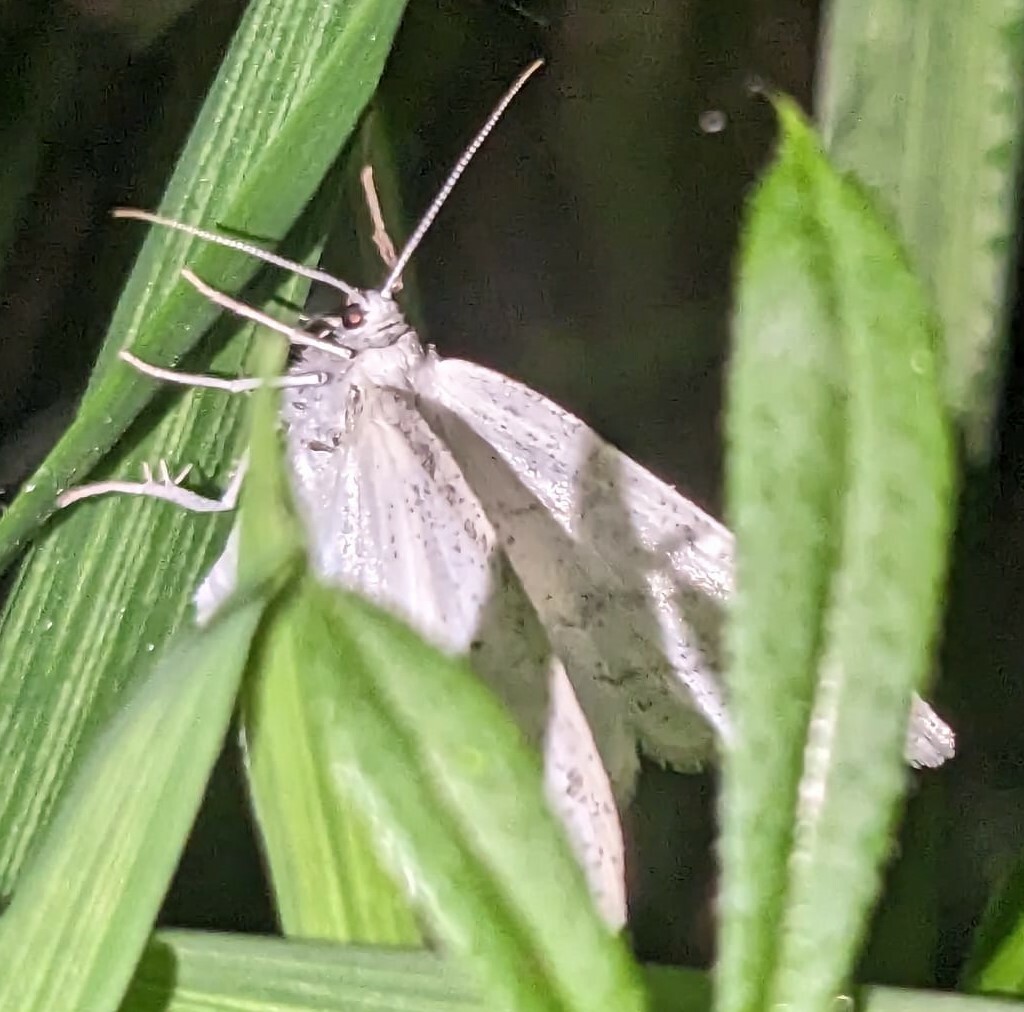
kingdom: Animalia
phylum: Arthropoda
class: Insecta
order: Lepidoptera
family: Geometridae
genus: Cabera
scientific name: Cabera pusaria
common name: Common white wave
